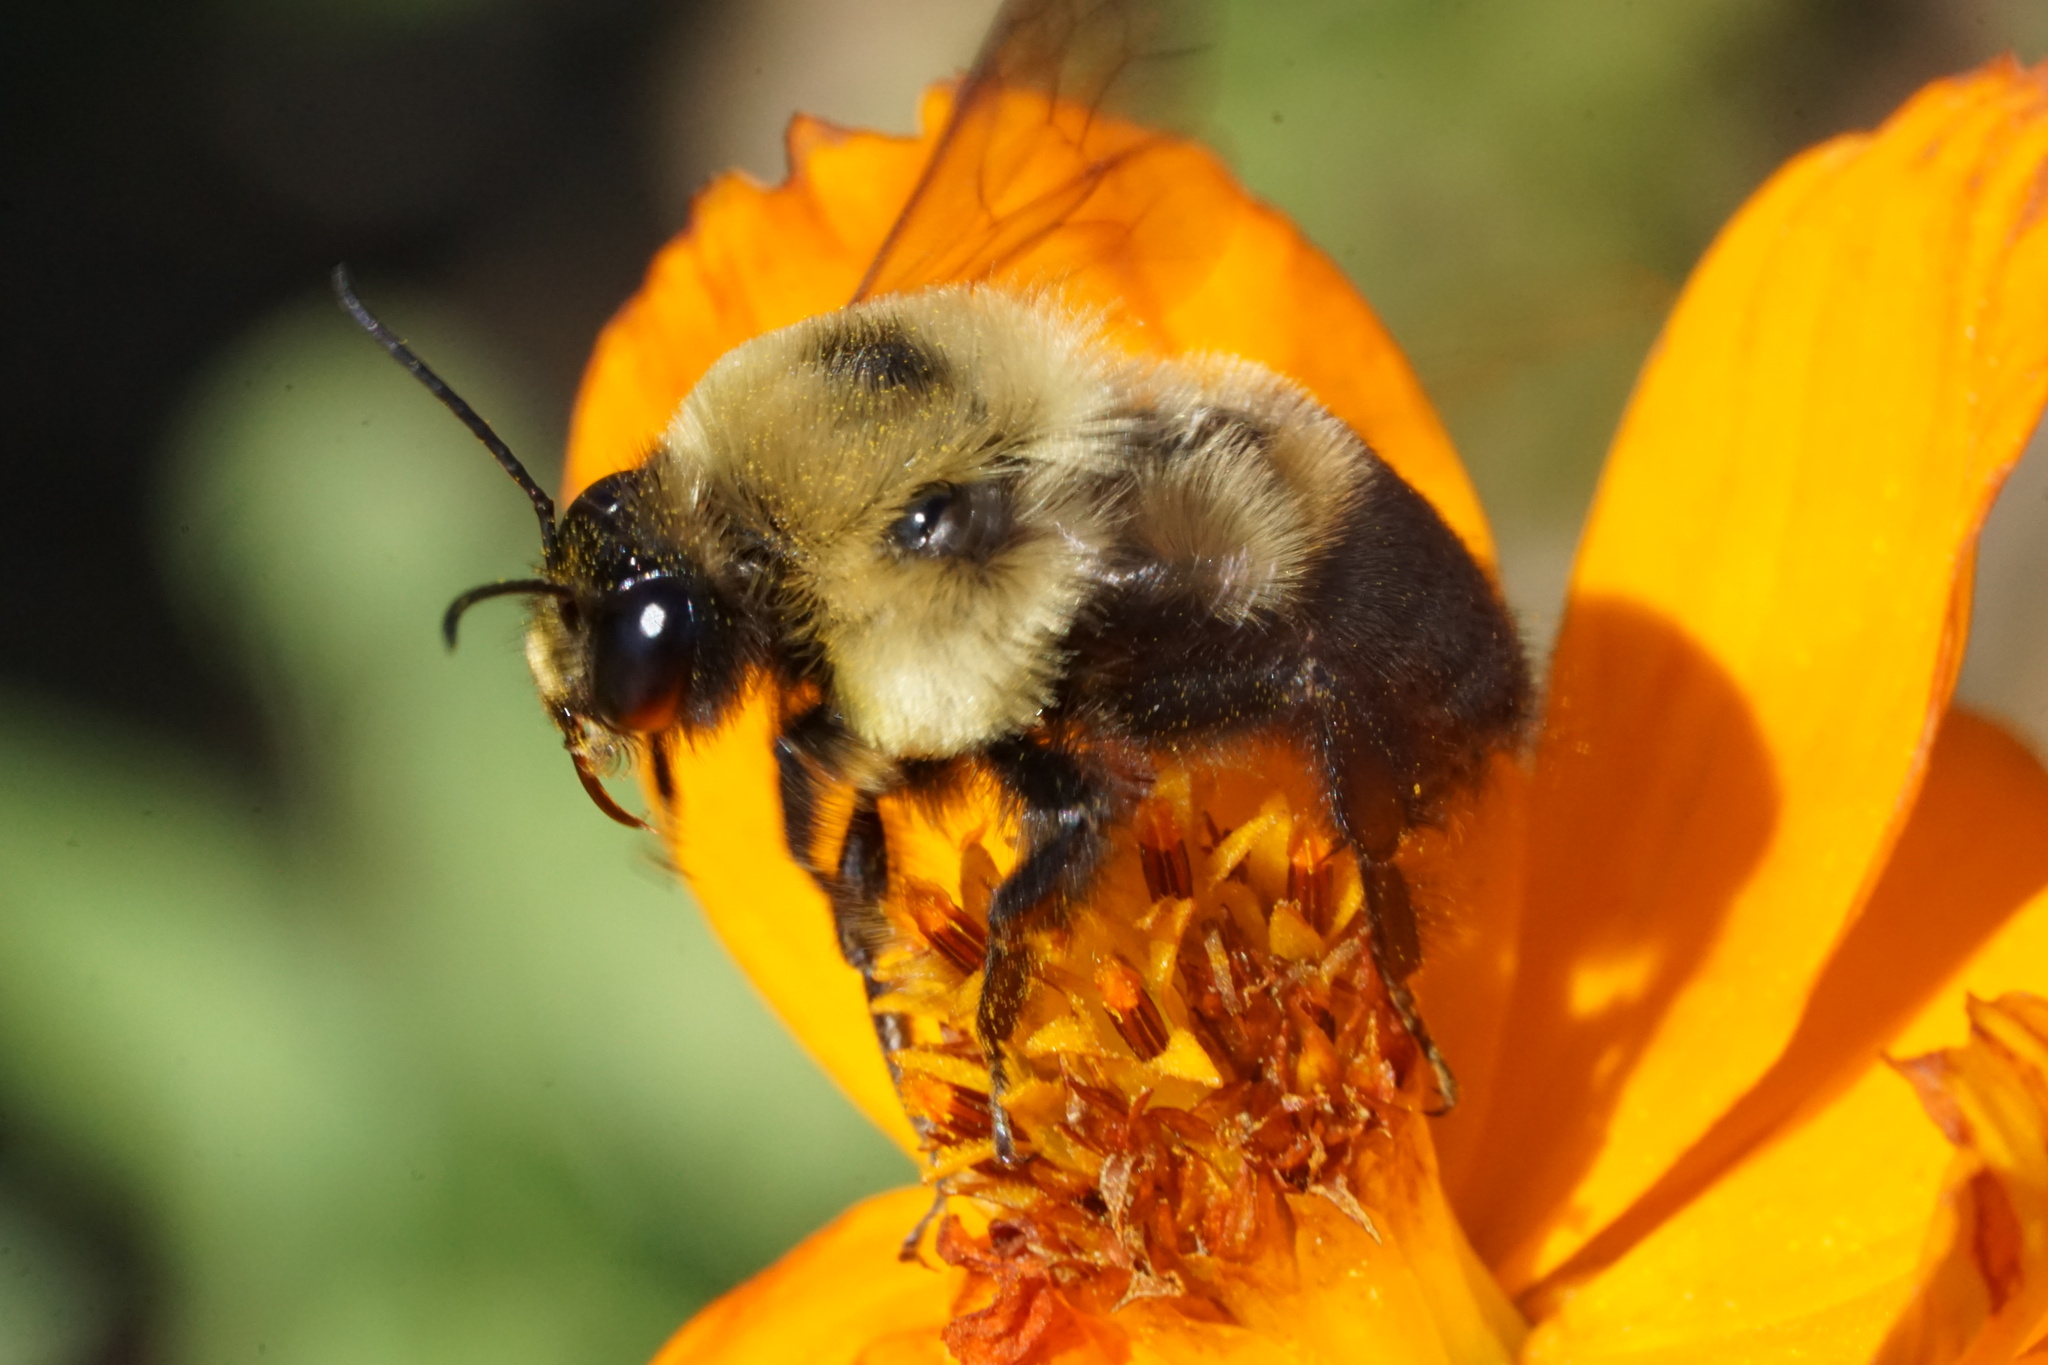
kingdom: Animalia
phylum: Arthropoda
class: Insecta
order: Hymenoptera
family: Apidae
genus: Bombus
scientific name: Bombus griseocollis
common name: Brown-belted bumble bee
